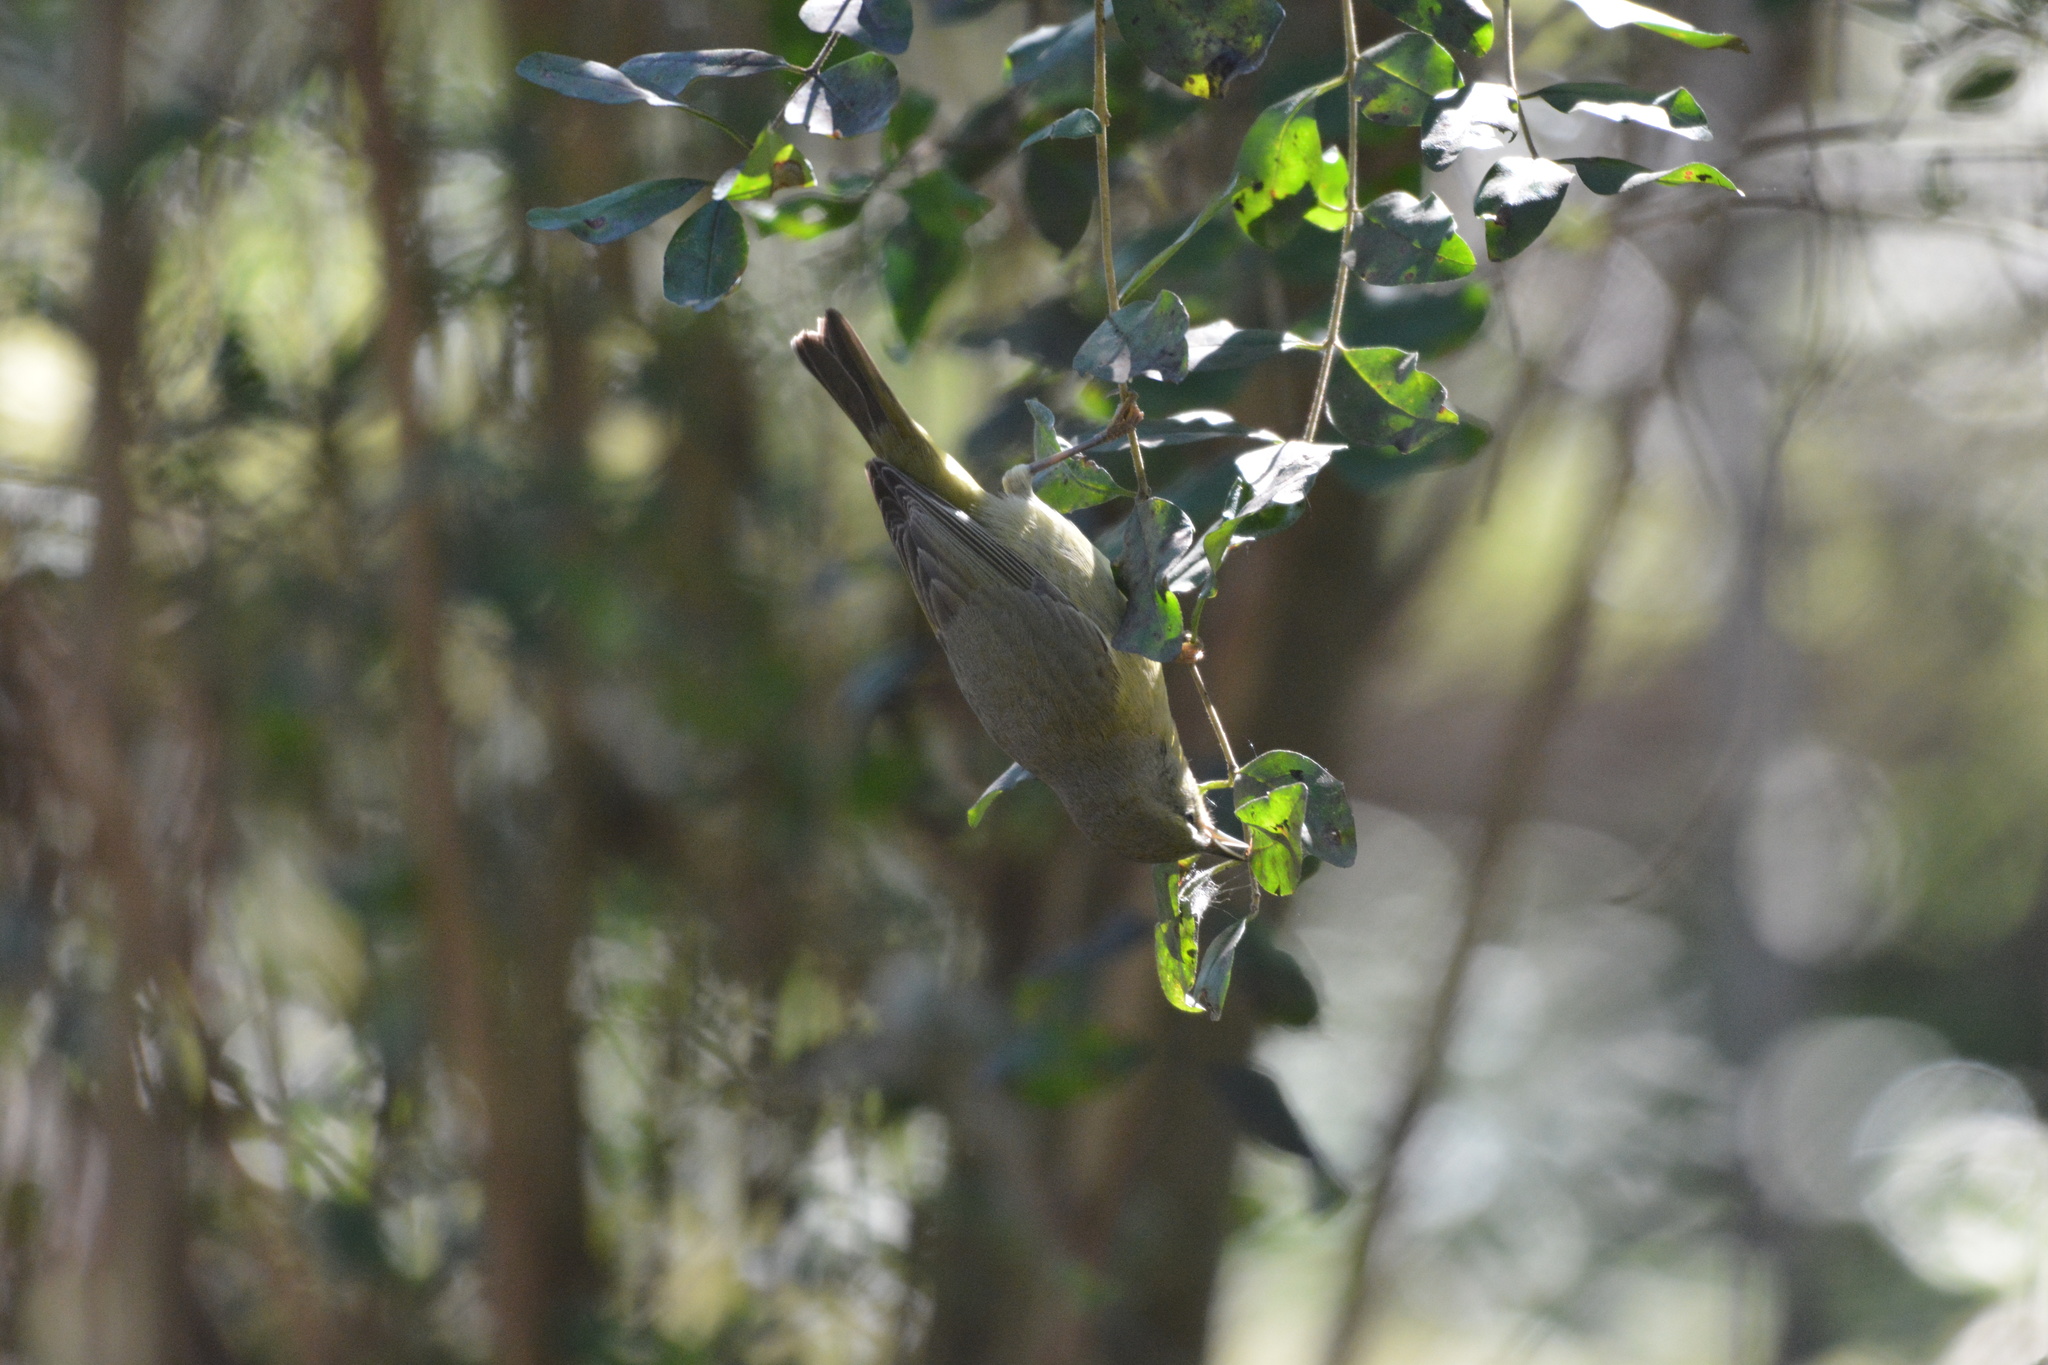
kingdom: Animalia
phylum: Chordata
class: Aves
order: Passeriformes
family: Parulidae
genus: Leiothlypis
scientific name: Leiothlypis celata
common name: Orange-crowned warbler
